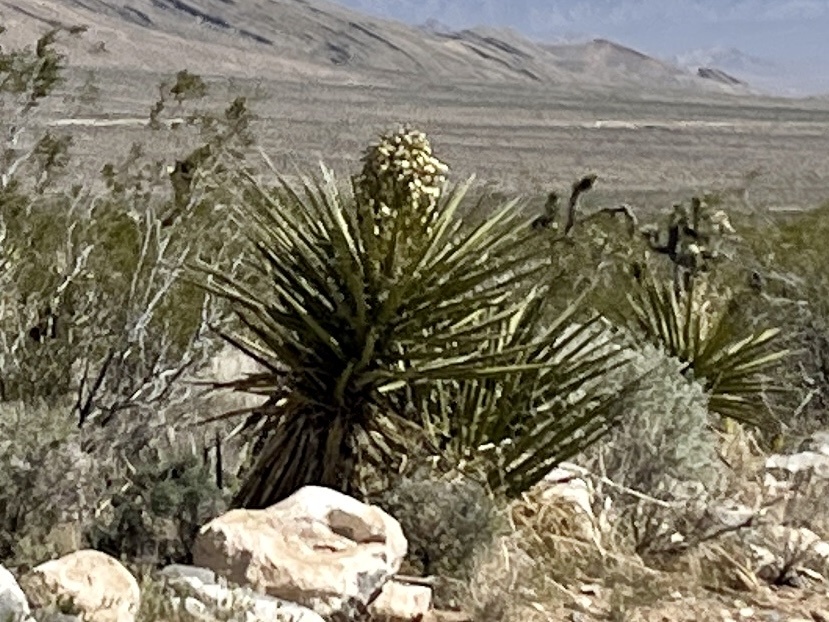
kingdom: Plantae
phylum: Tracheophyta
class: Liliopsida
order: Asparagales
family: Asparagaceae
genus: Yucca
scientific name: Yucca schidigera
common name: Mojave yucca
